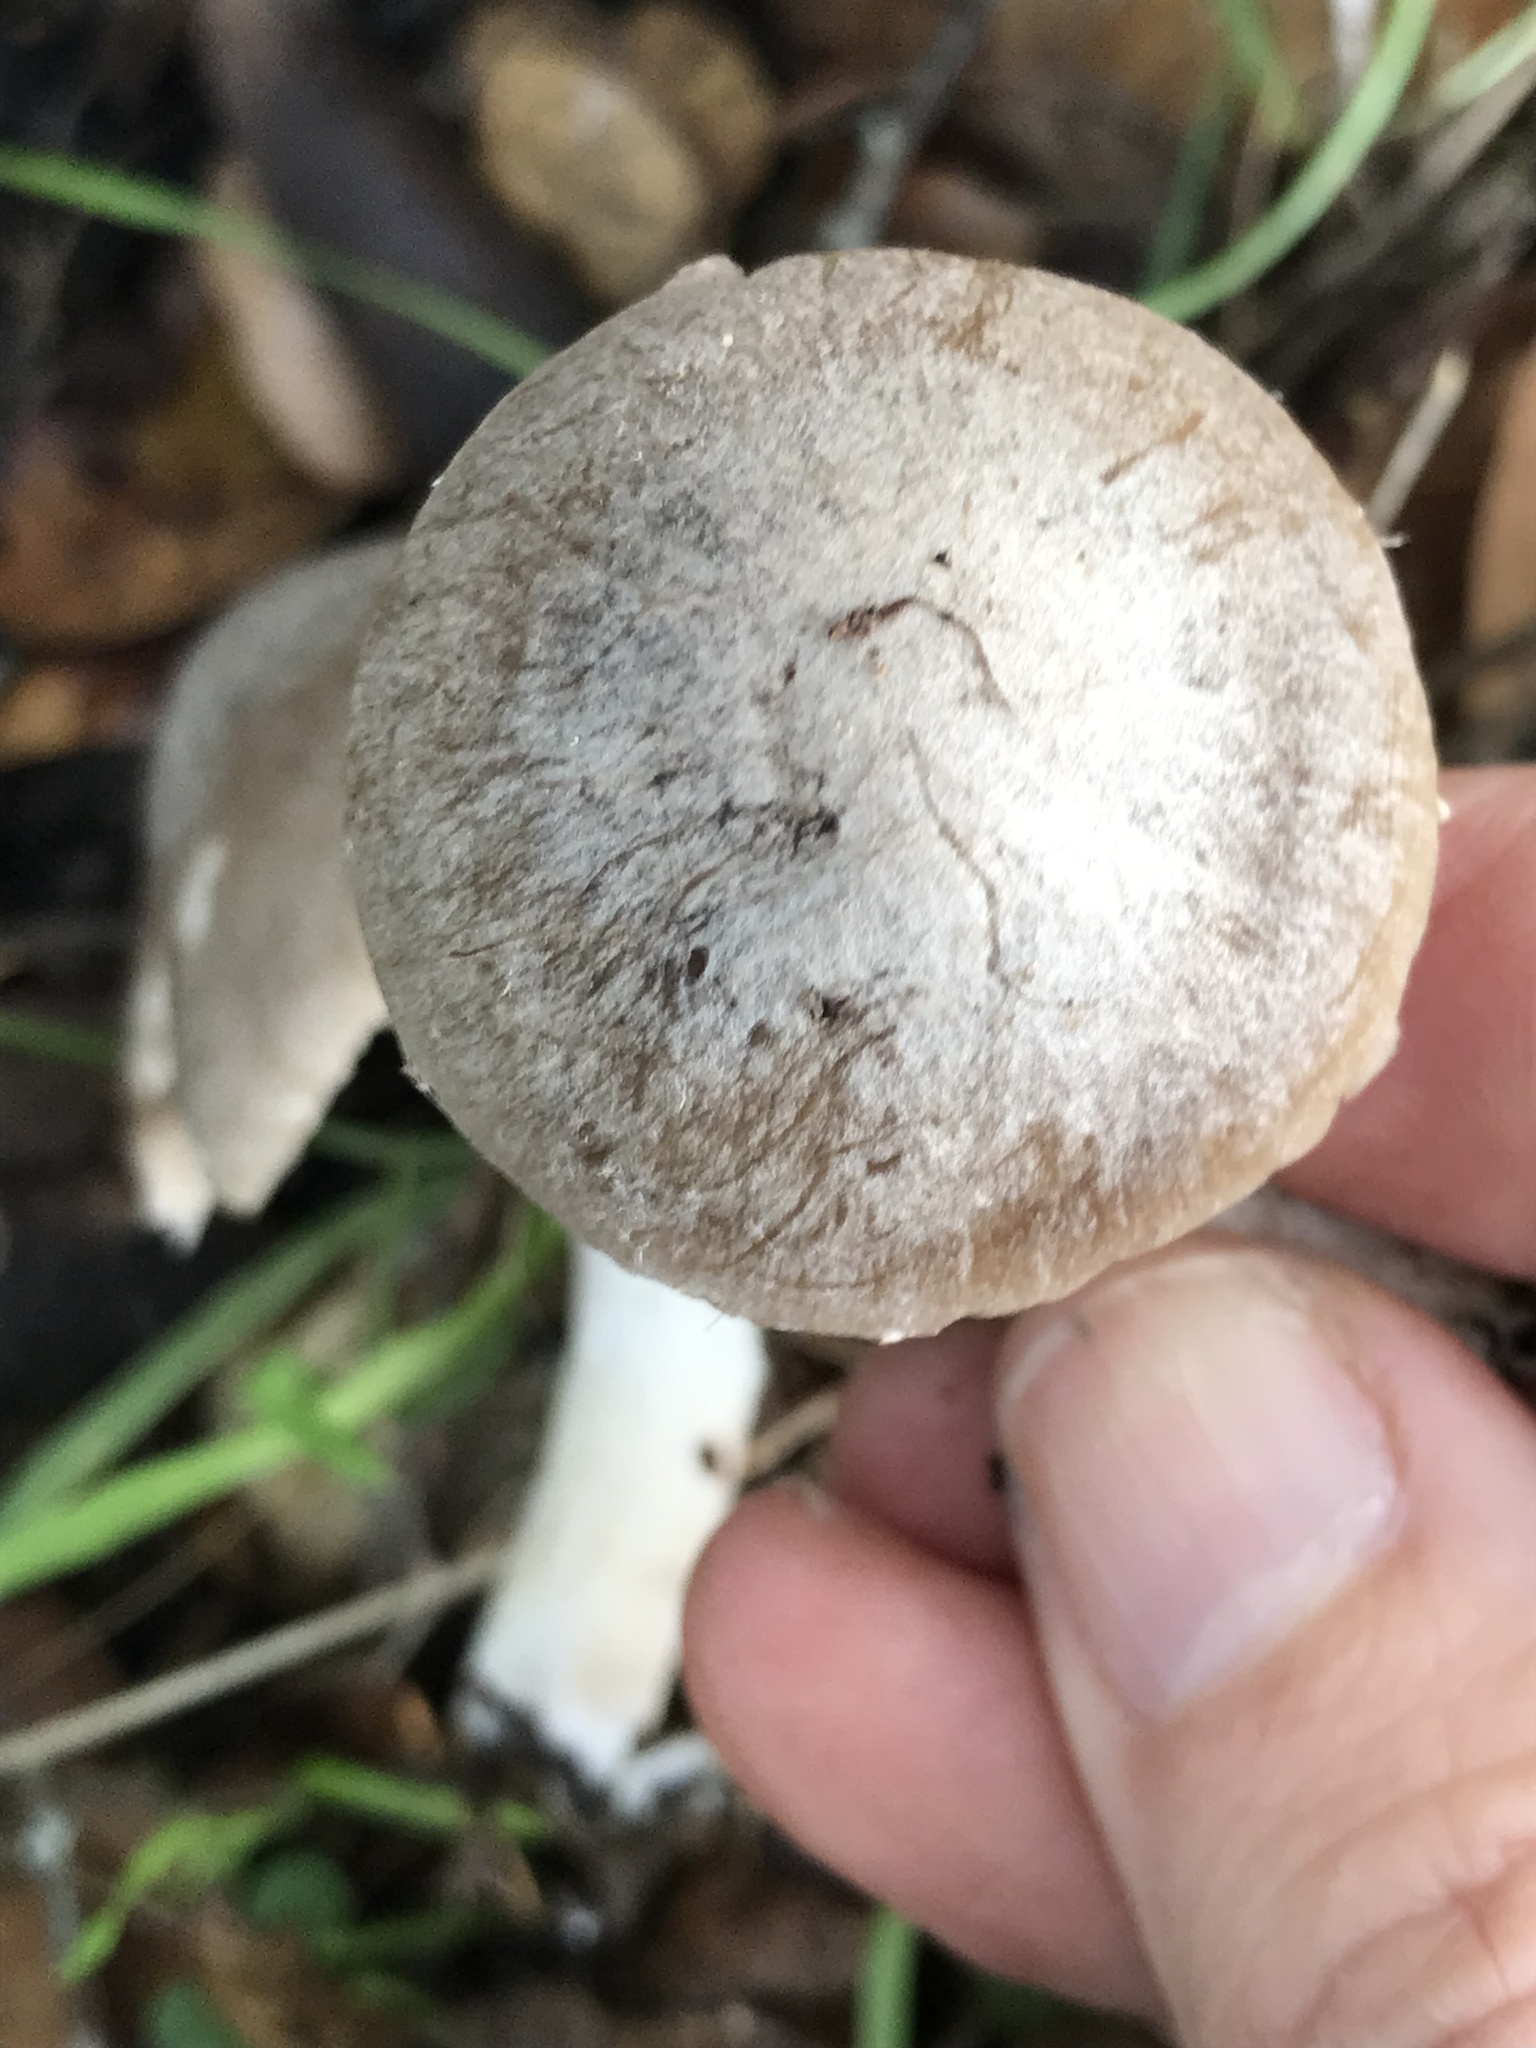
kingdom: Fungi
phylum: Basidiomycota
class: Agaricomycetes
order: Agaricales
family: Psathyrellaceae
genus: Psathyrella
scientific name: Psathyrella uliginicola
